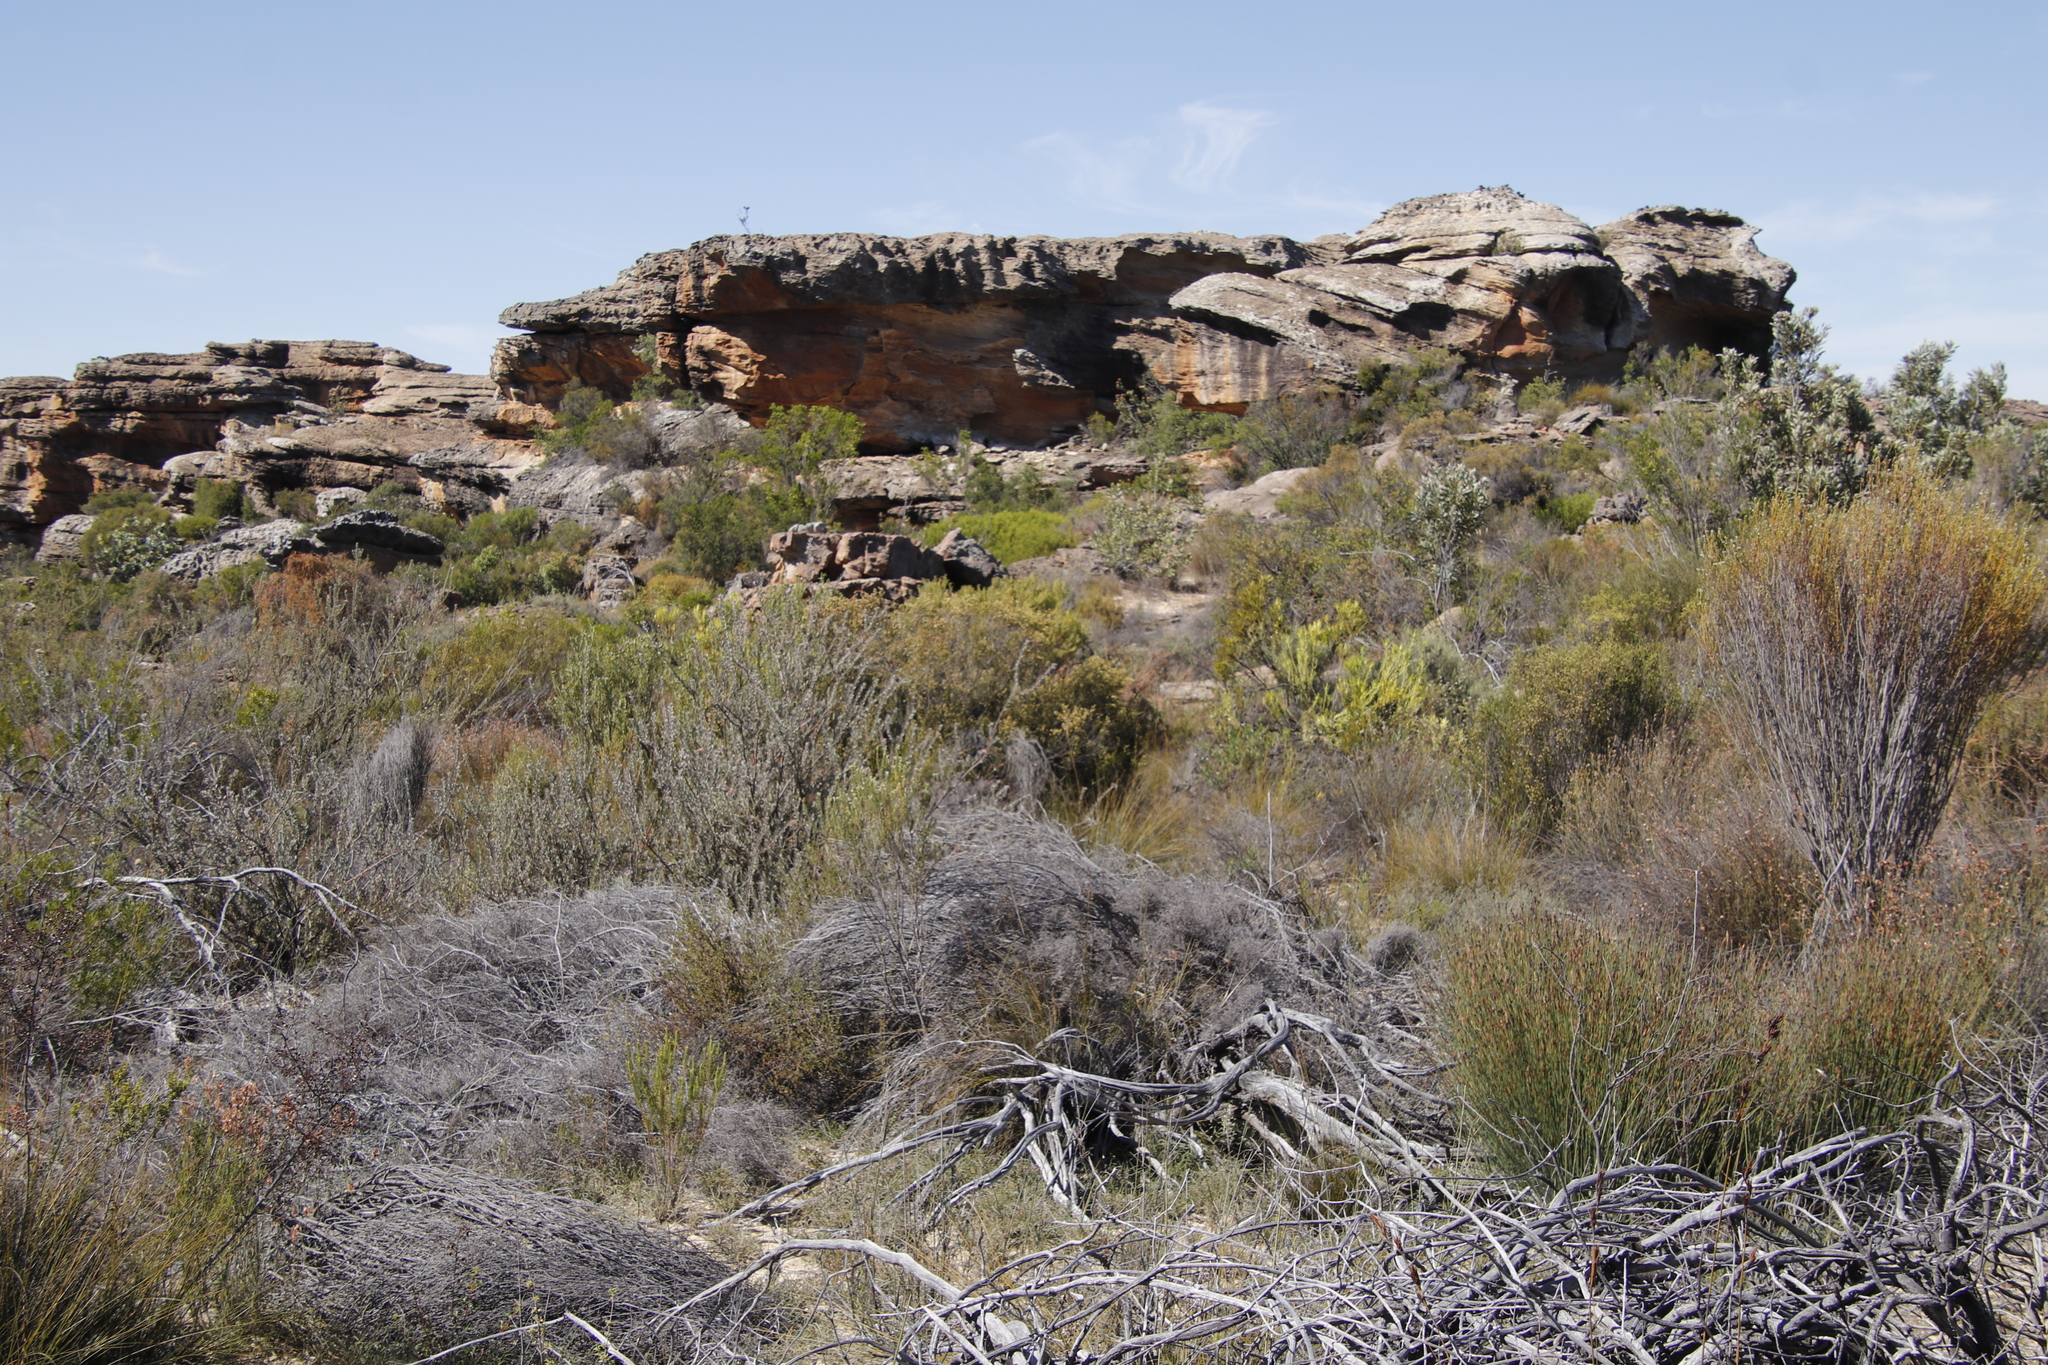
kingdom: Plantae
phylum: Tracheophyta
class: Magnoliopsida
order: Proteales
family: Proteaceae
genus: Leucospermum
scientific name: Leucospermum calligerum
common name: Arid pincushion
